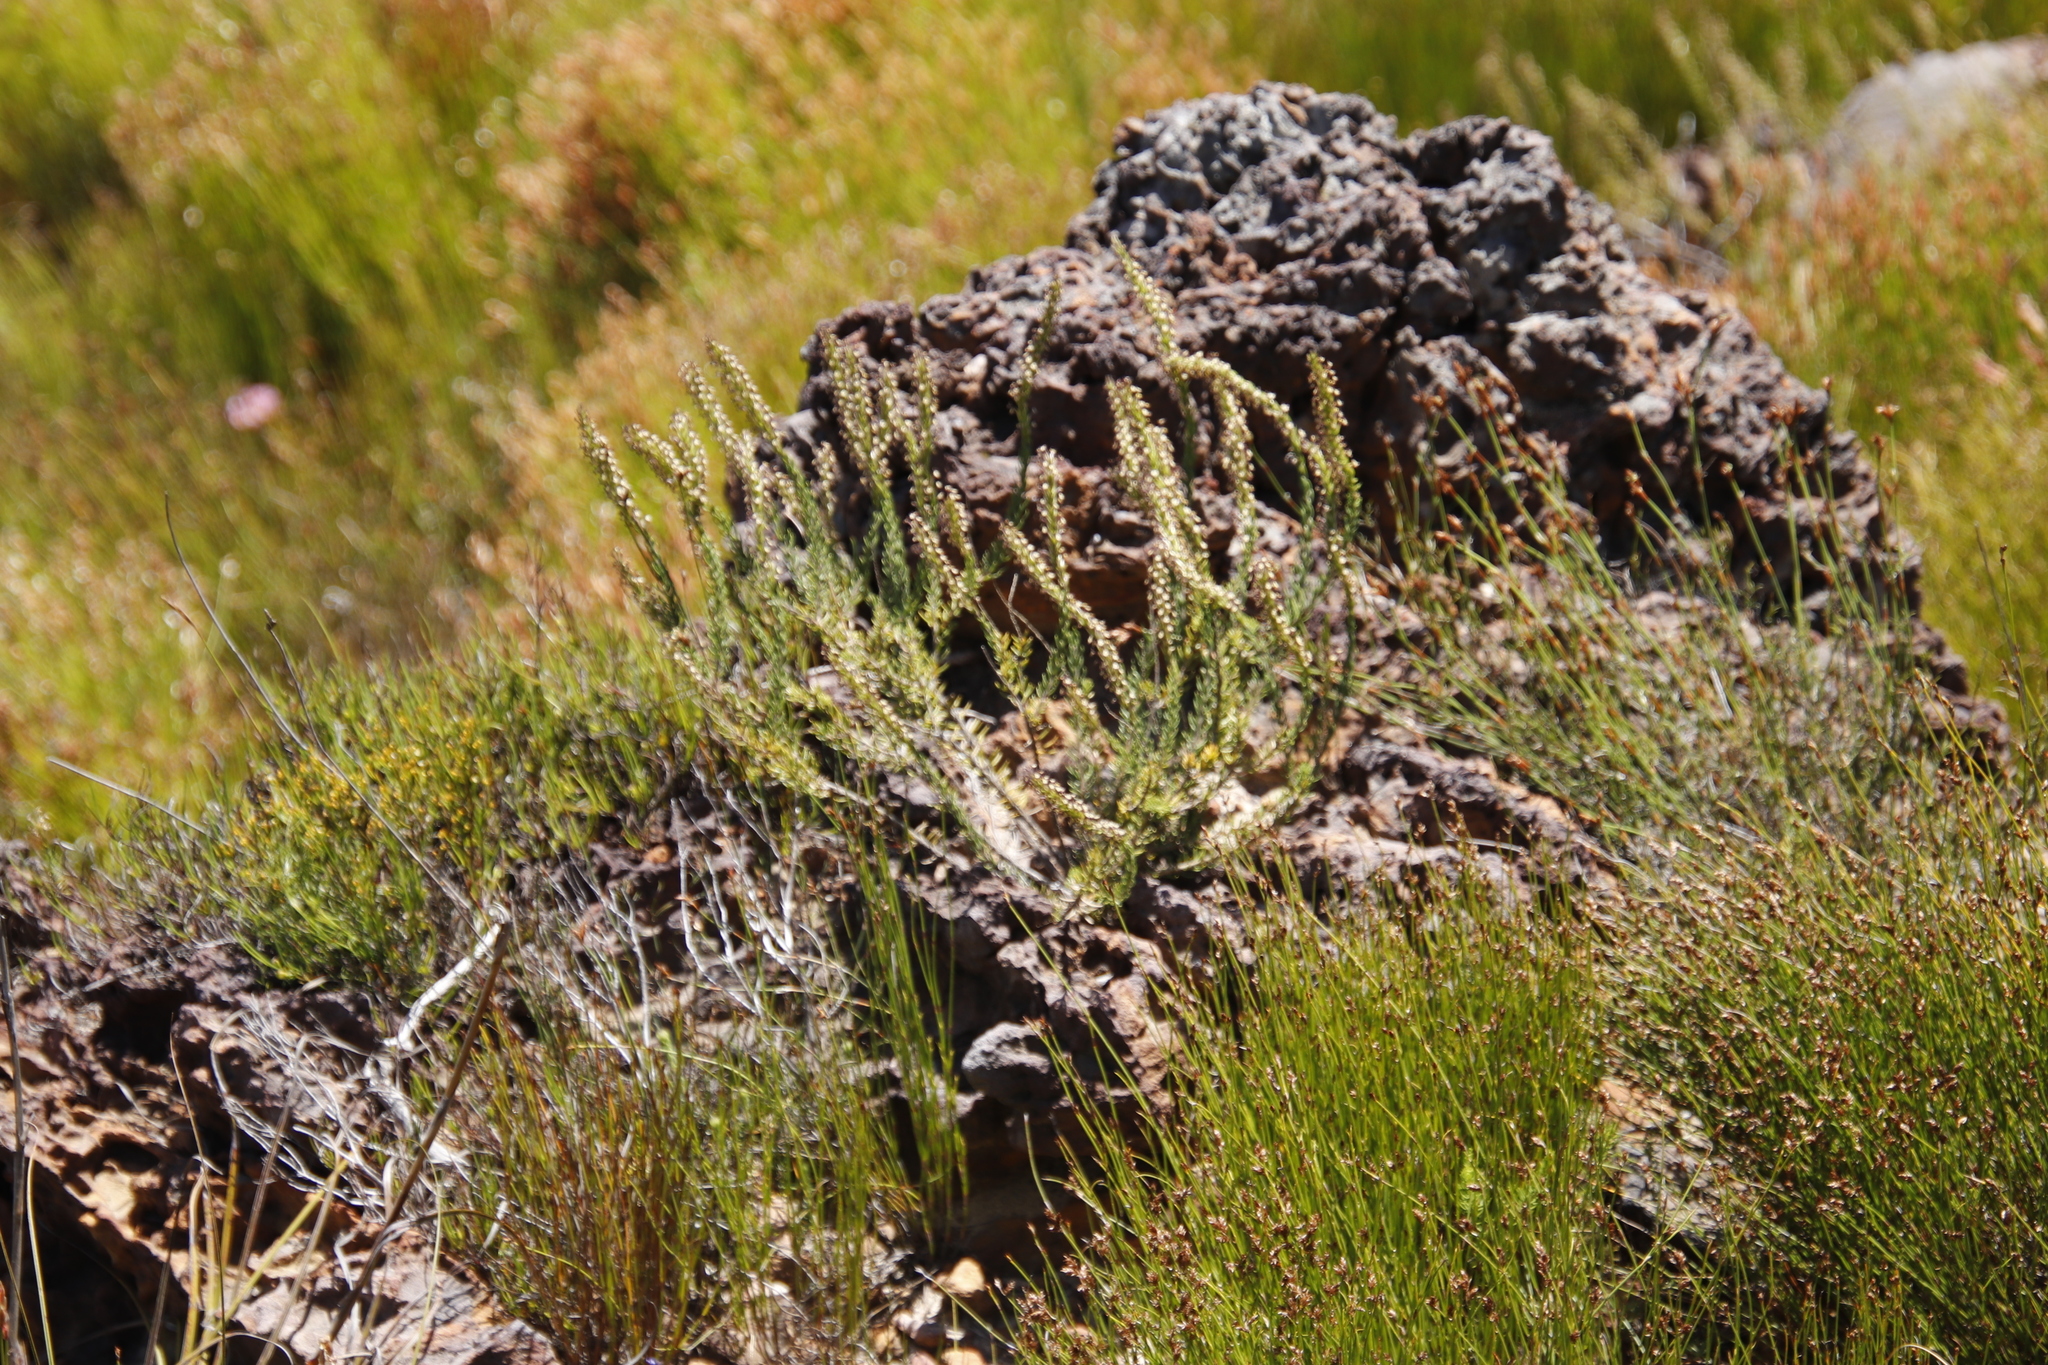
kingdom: Plantae
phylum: Tracheophyta
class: Magnoliopsida
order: Lamiales
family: Scrophulariaceae
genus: Microdon
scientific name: Microdon dubius
